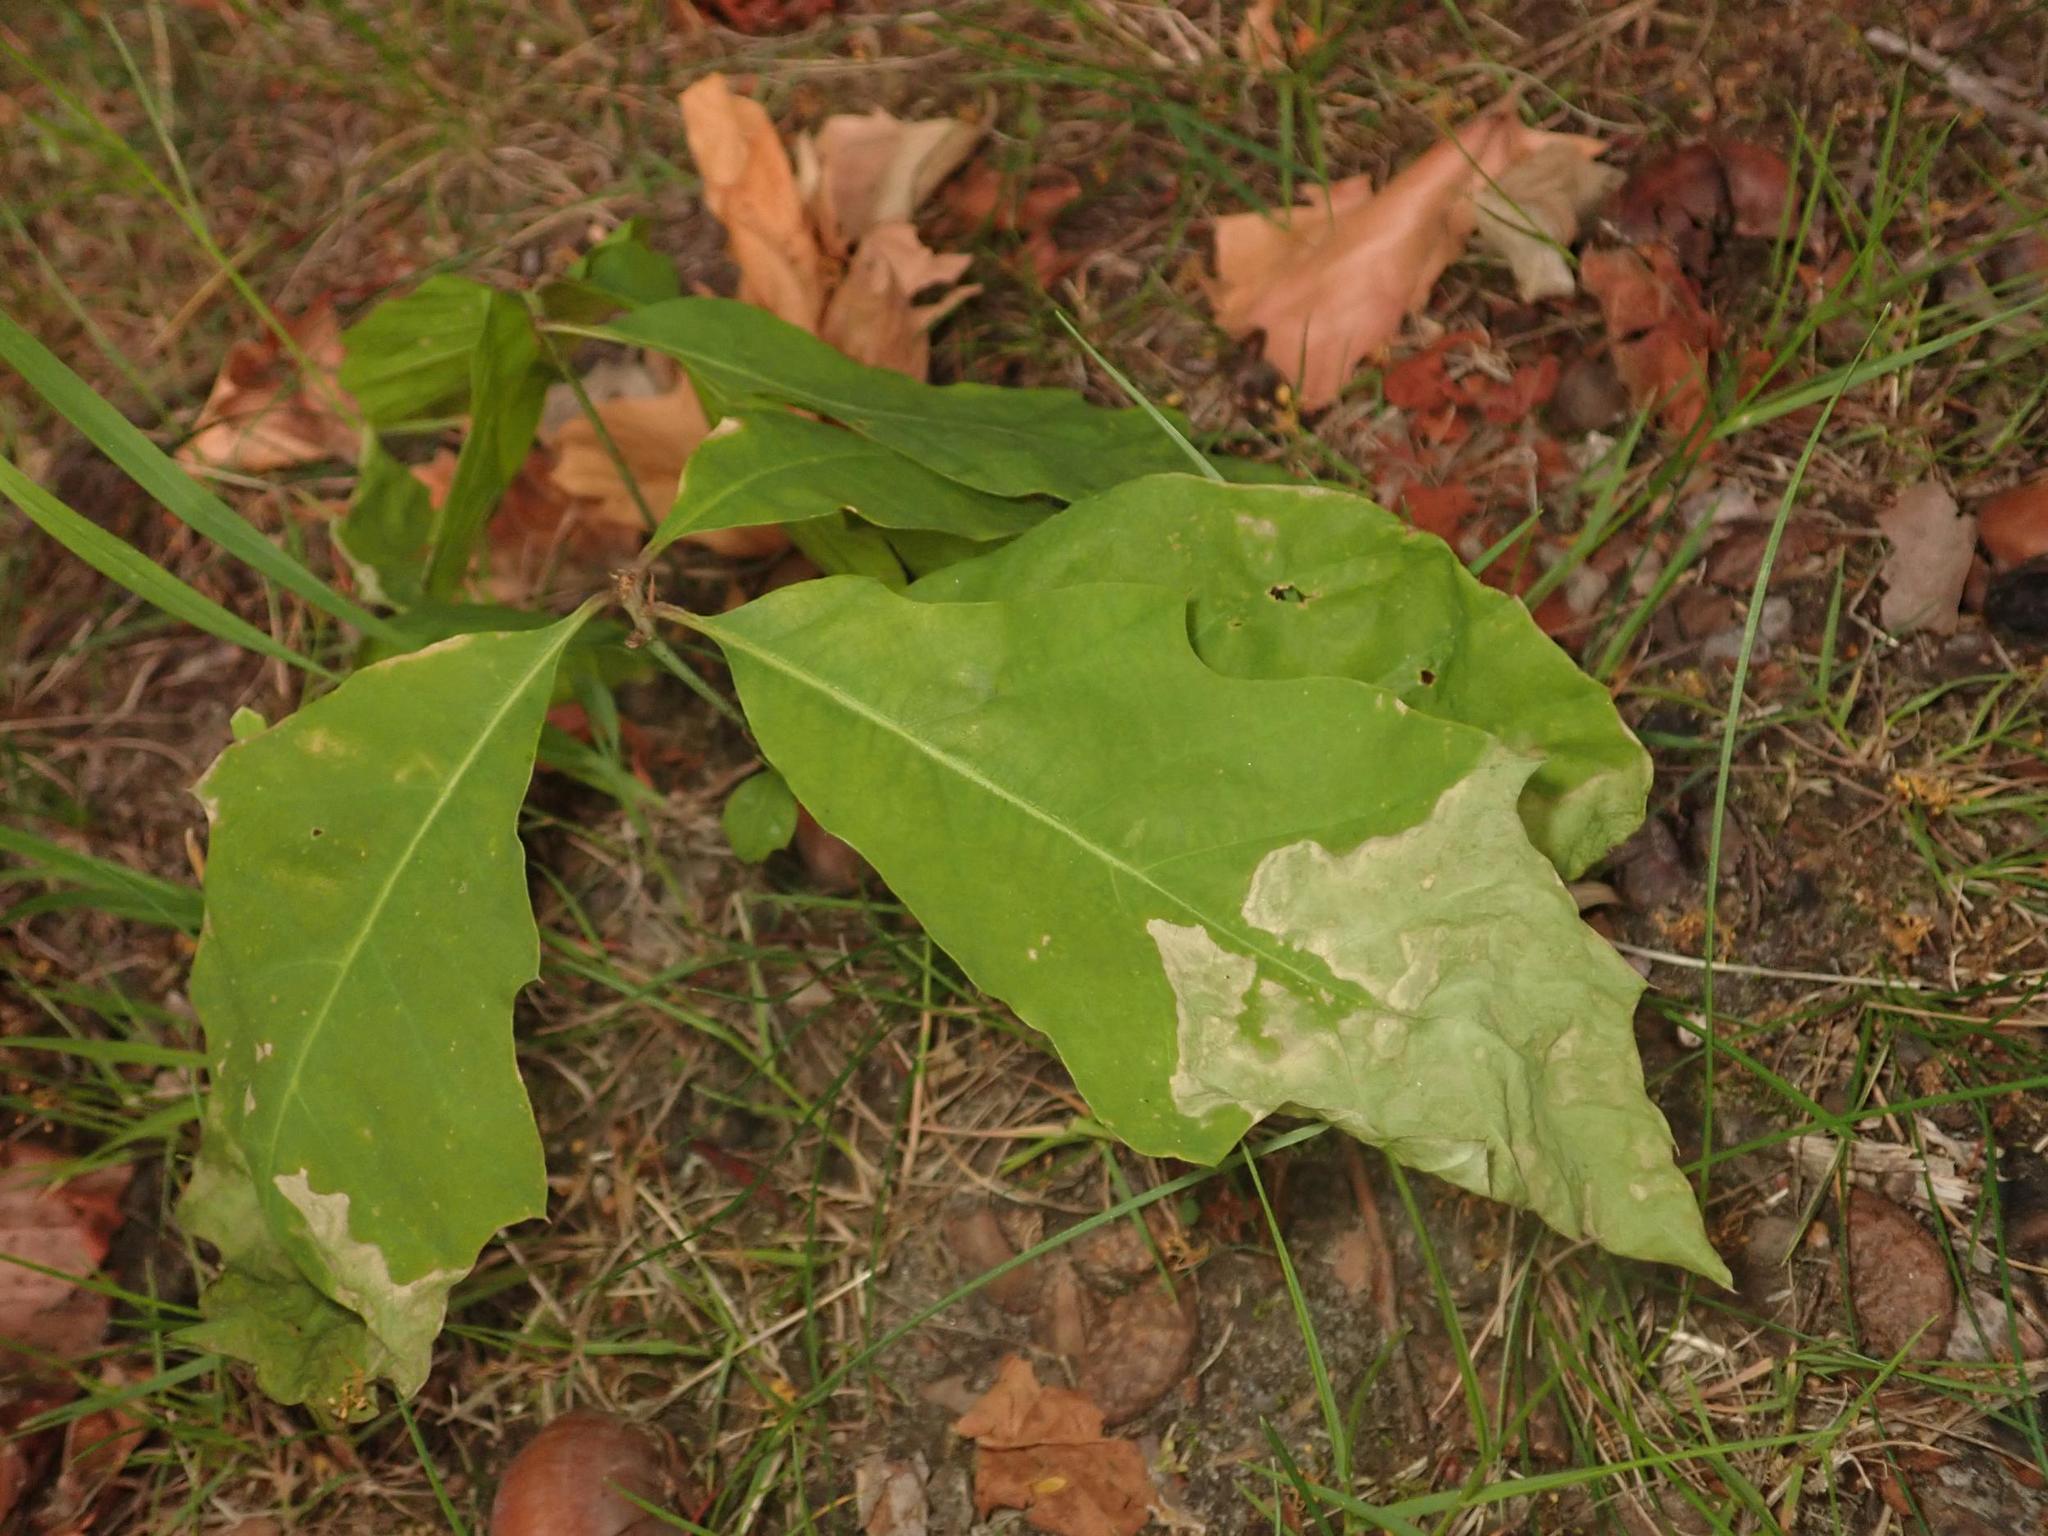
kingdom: Plantae
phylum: Tracheophyta
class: Magnoliopsida
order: Fagales
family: Fagaceae
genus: Quercus
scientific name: Quercus rubra
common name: Red oak
